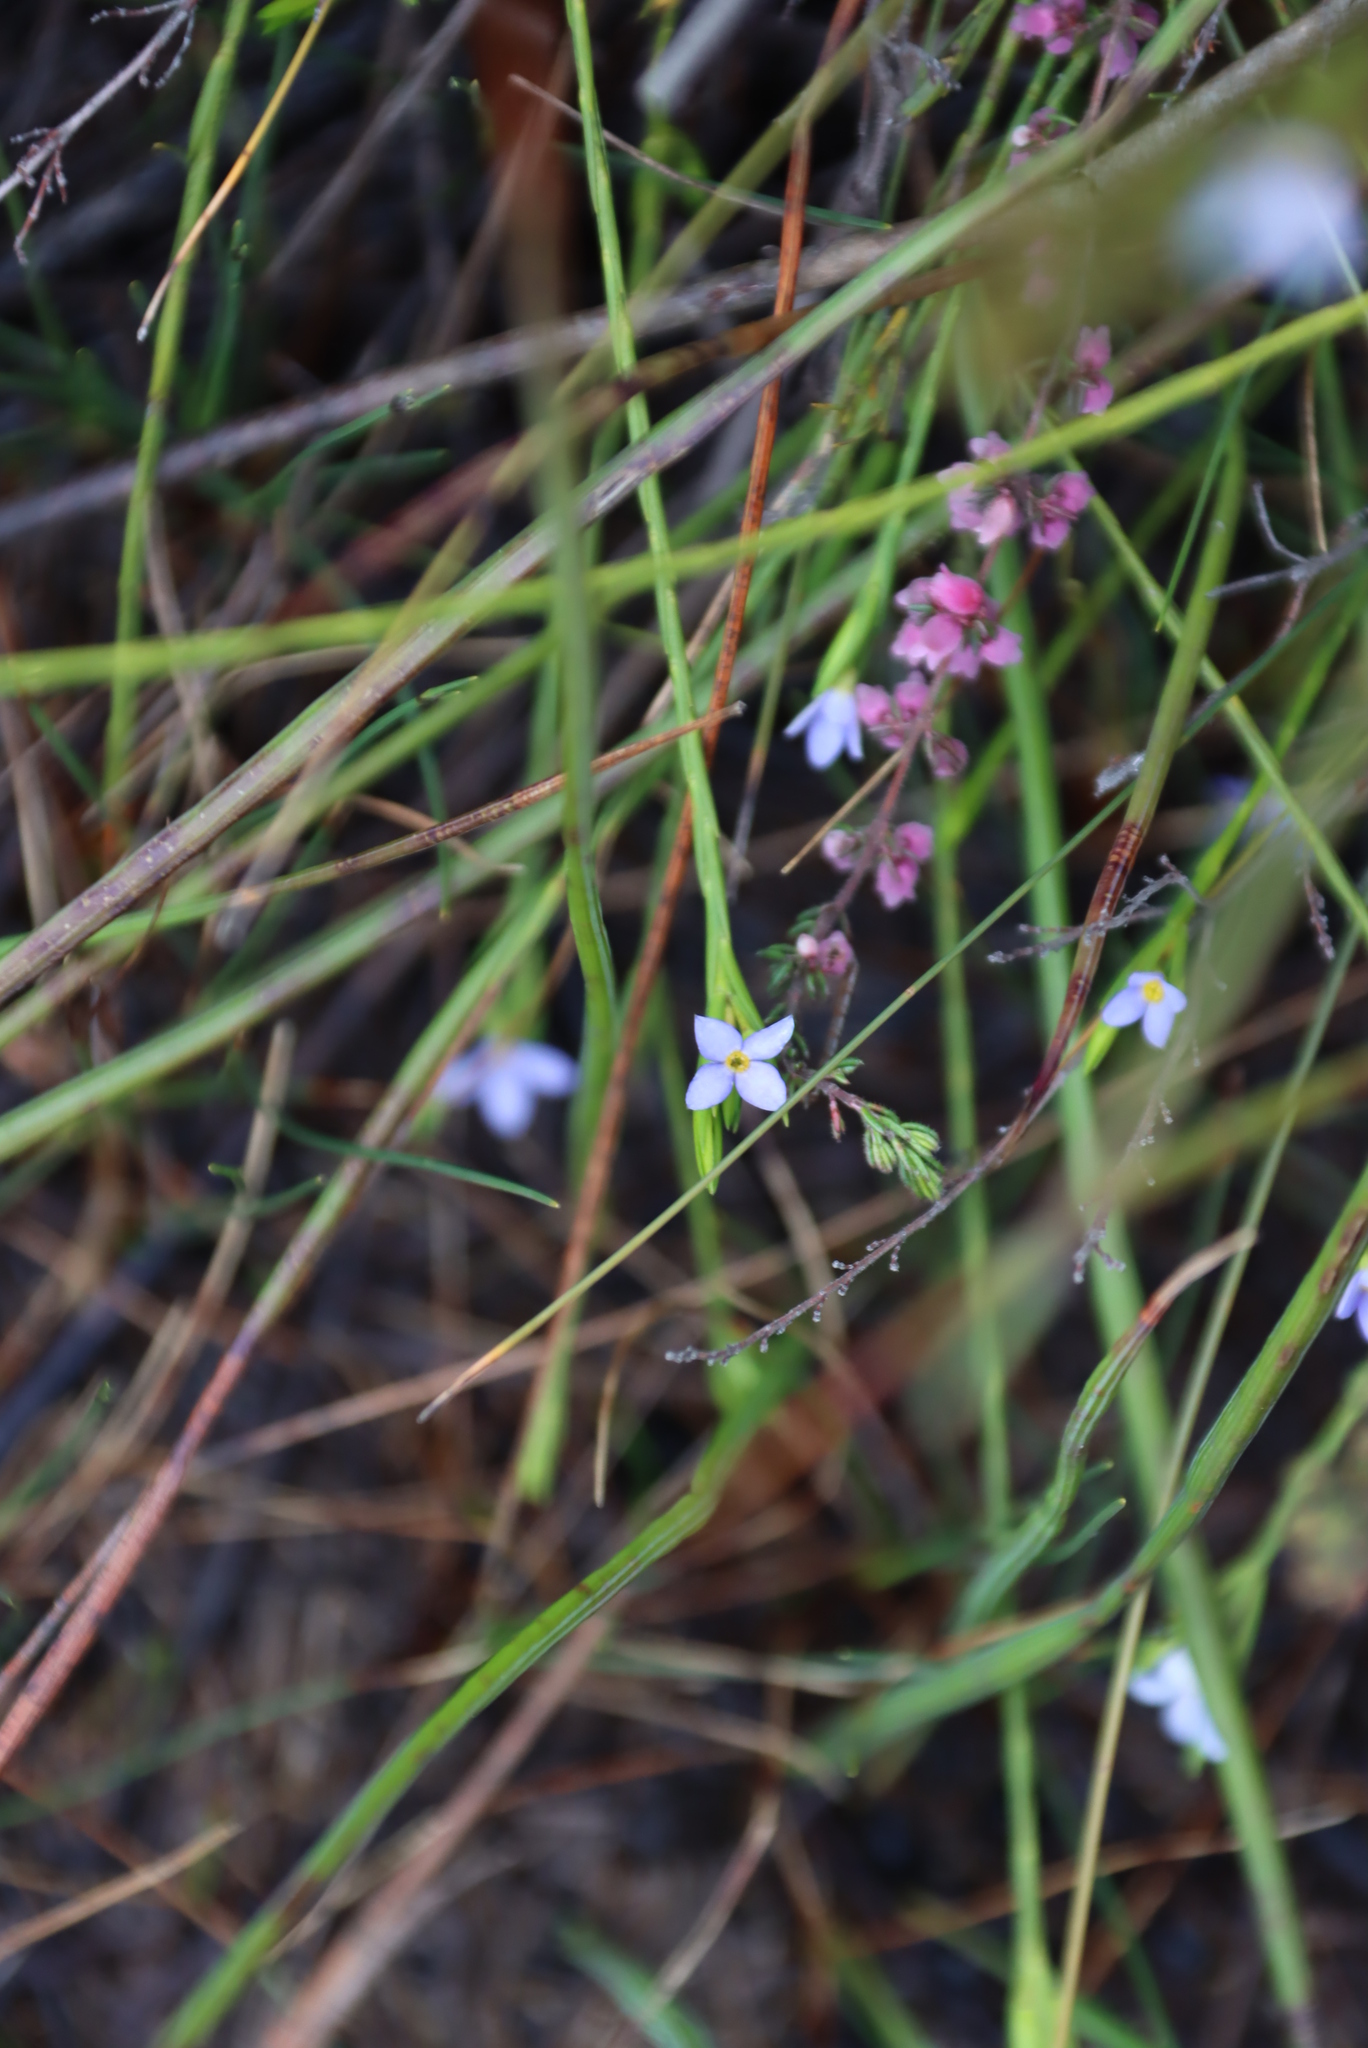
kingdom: Plantae
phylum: Tracheophyta
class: Magnoliopsida
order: Malvales
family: Thymelaeaceae
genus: Gnidia
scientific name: Gnidia penicillata
